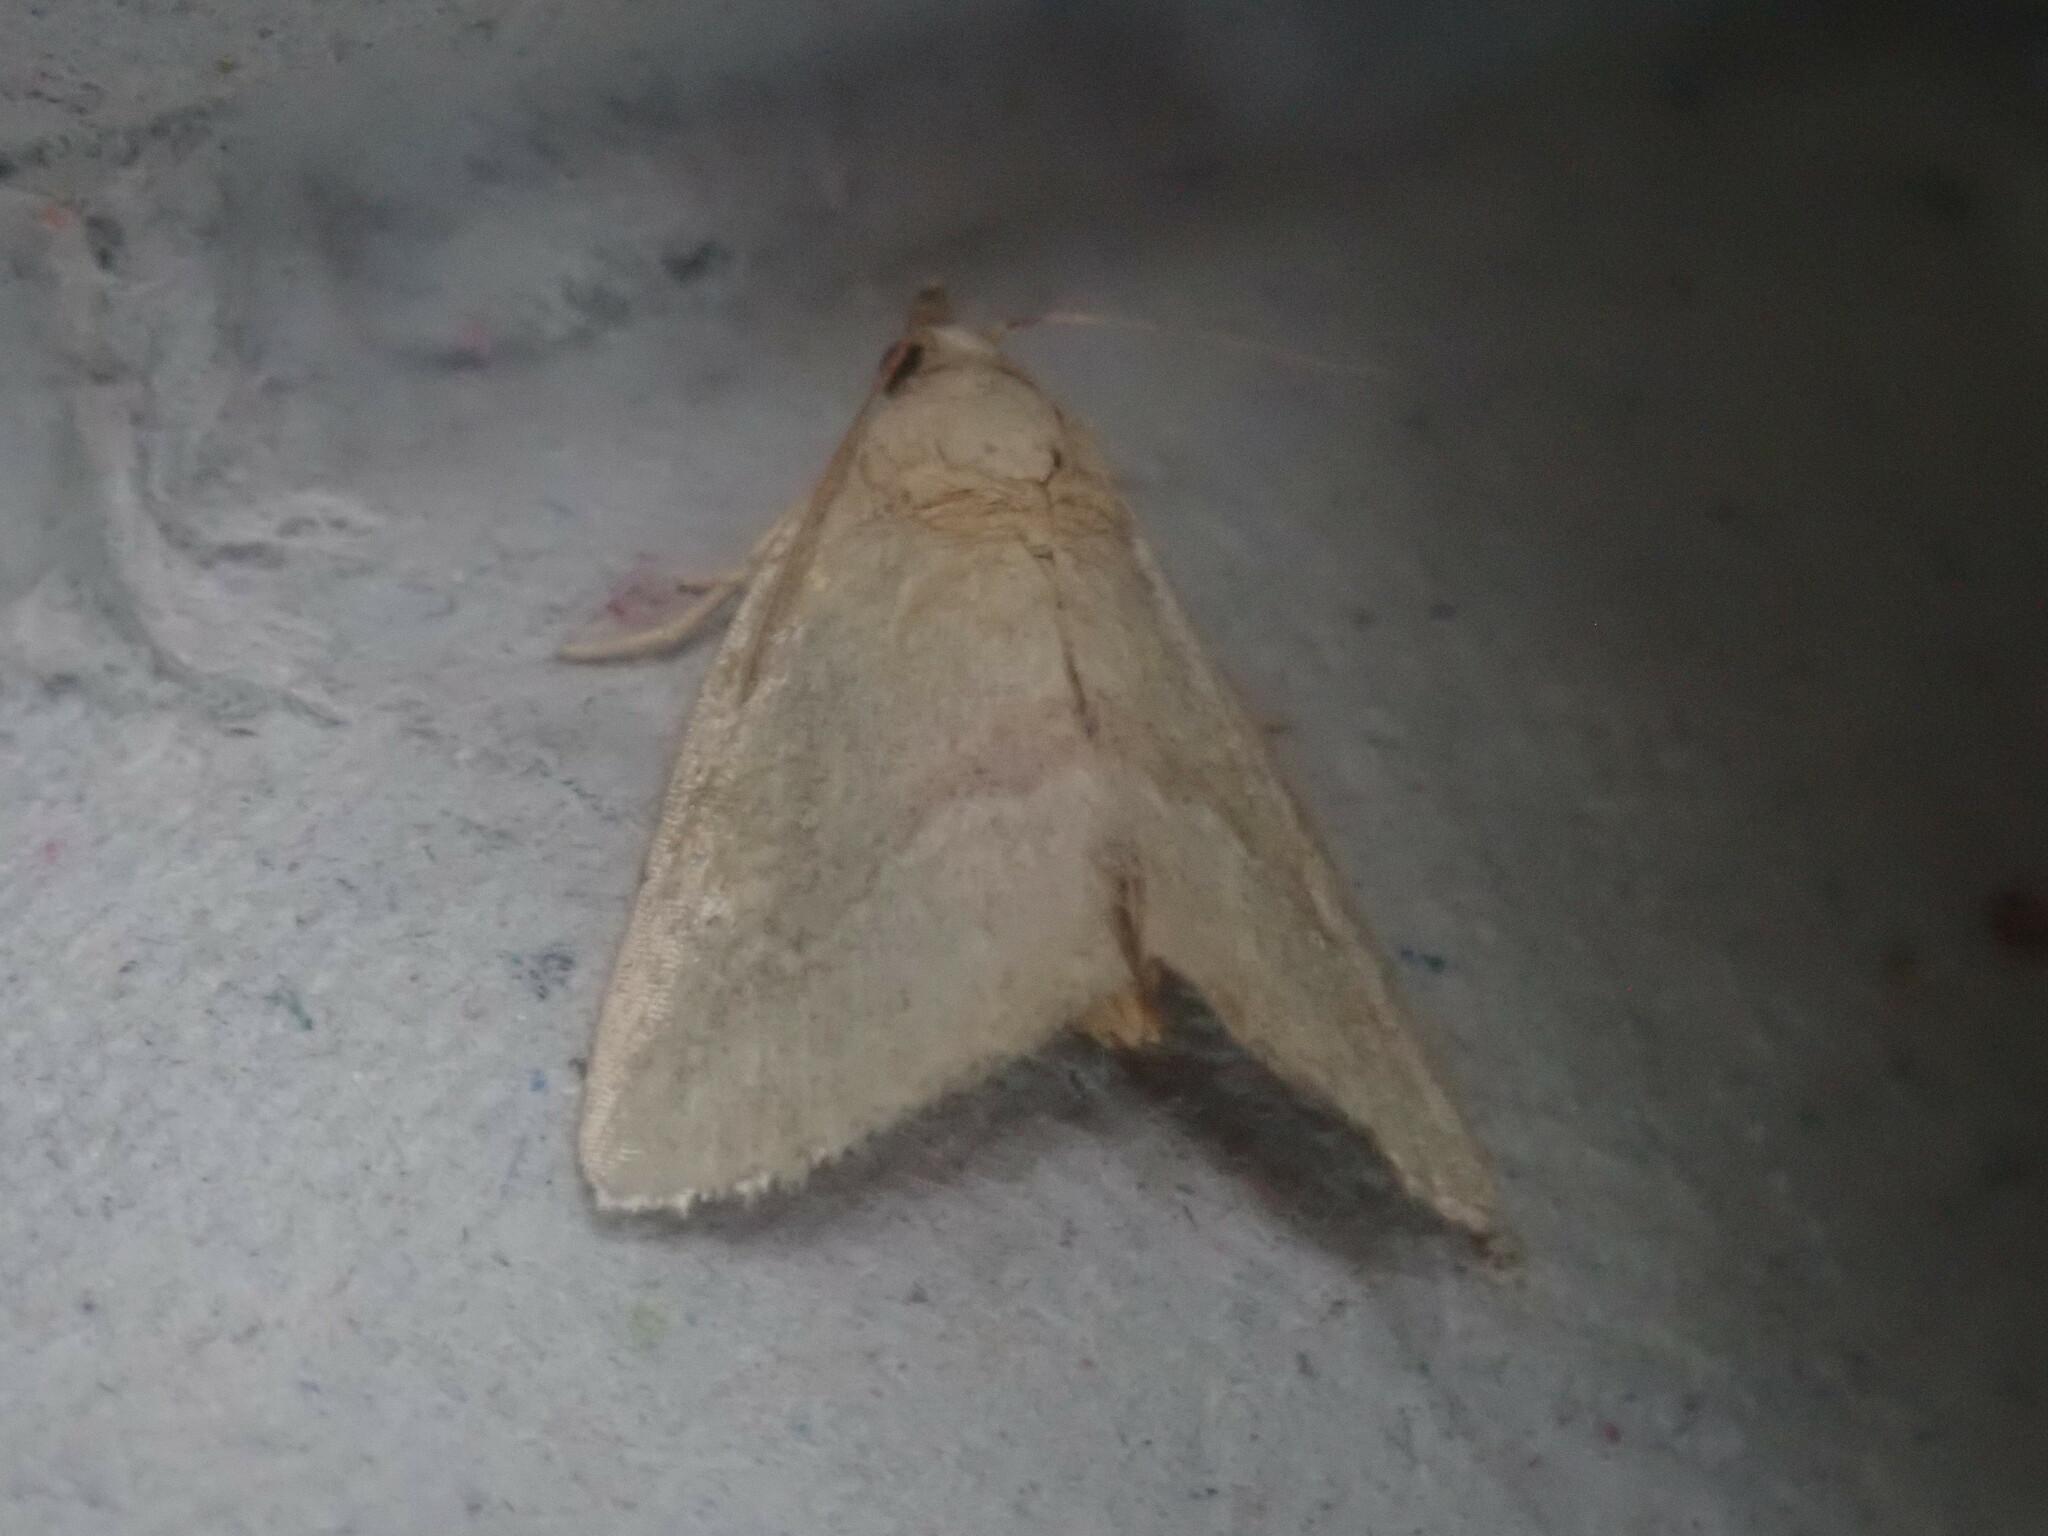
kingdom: Animalia
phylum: Arthropoda
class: Insecta
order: Lepidoptera
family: Noctuidae
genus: Protodeltote
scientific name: Protodeltote albidula
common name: Pale glyph
